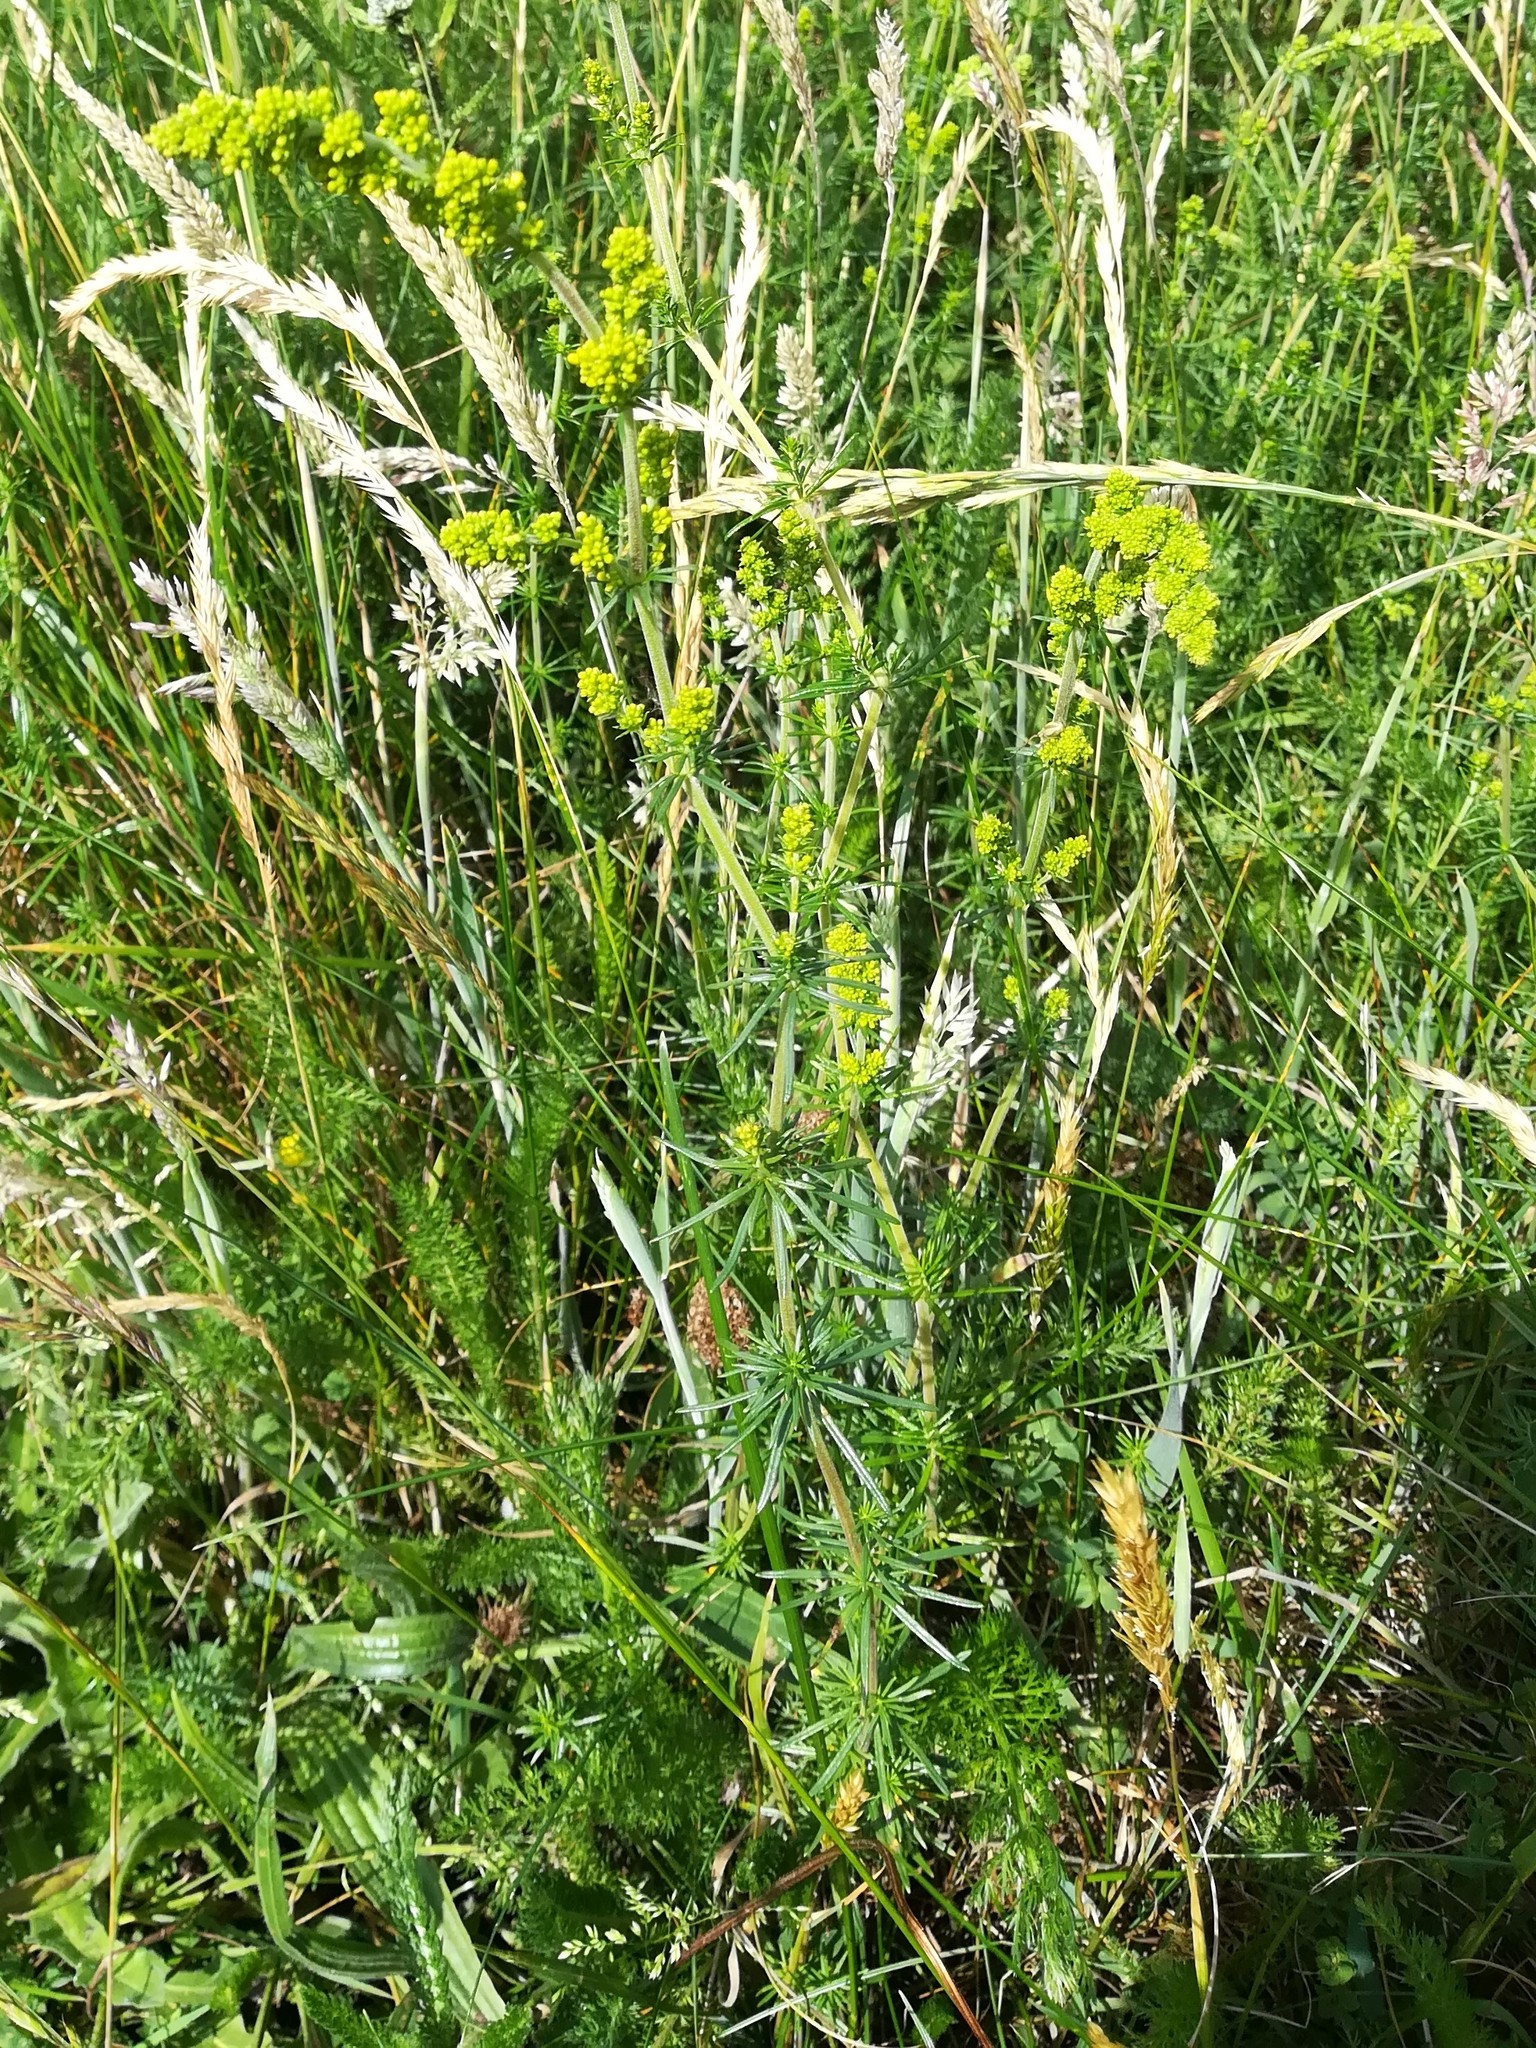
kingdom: Plantae
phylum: Tracheophyta
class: Magnoliopsida
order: Gentianales
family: Rubiaceae
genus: Galium
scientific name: Galium verum
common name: Lady's bedstraw
